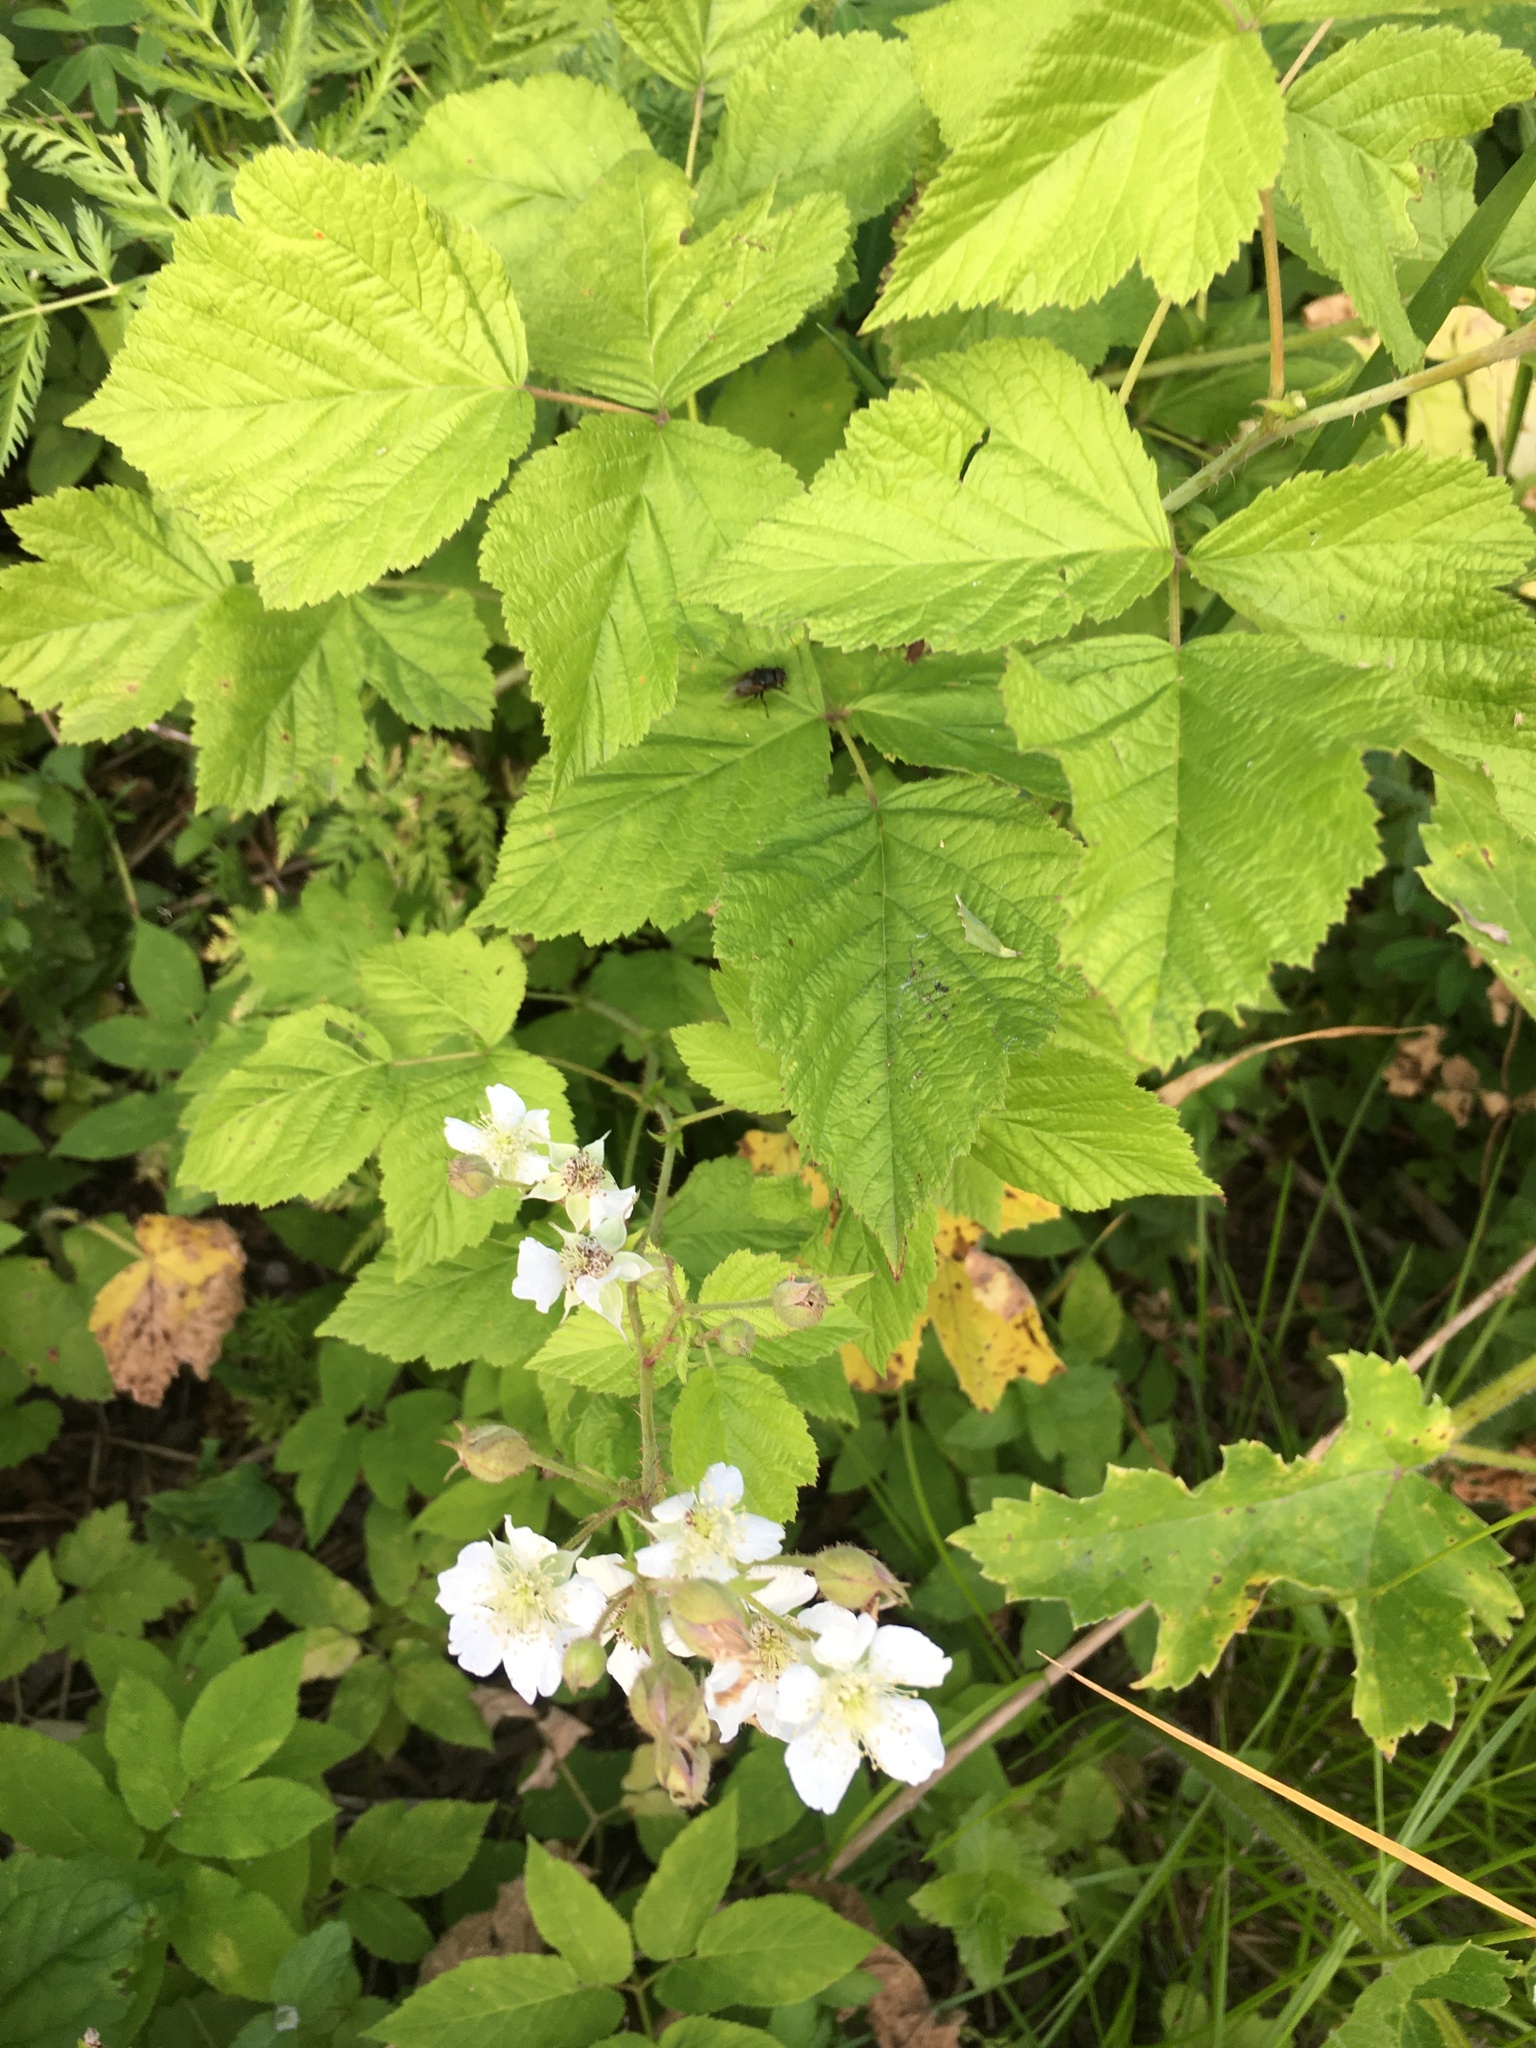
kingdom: Plantae
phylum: Tracheophyta
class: Magnoliopsida
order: Rosales
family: Rosaceae
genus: Rubus
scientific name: Rubus caesius
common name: Dewberry
